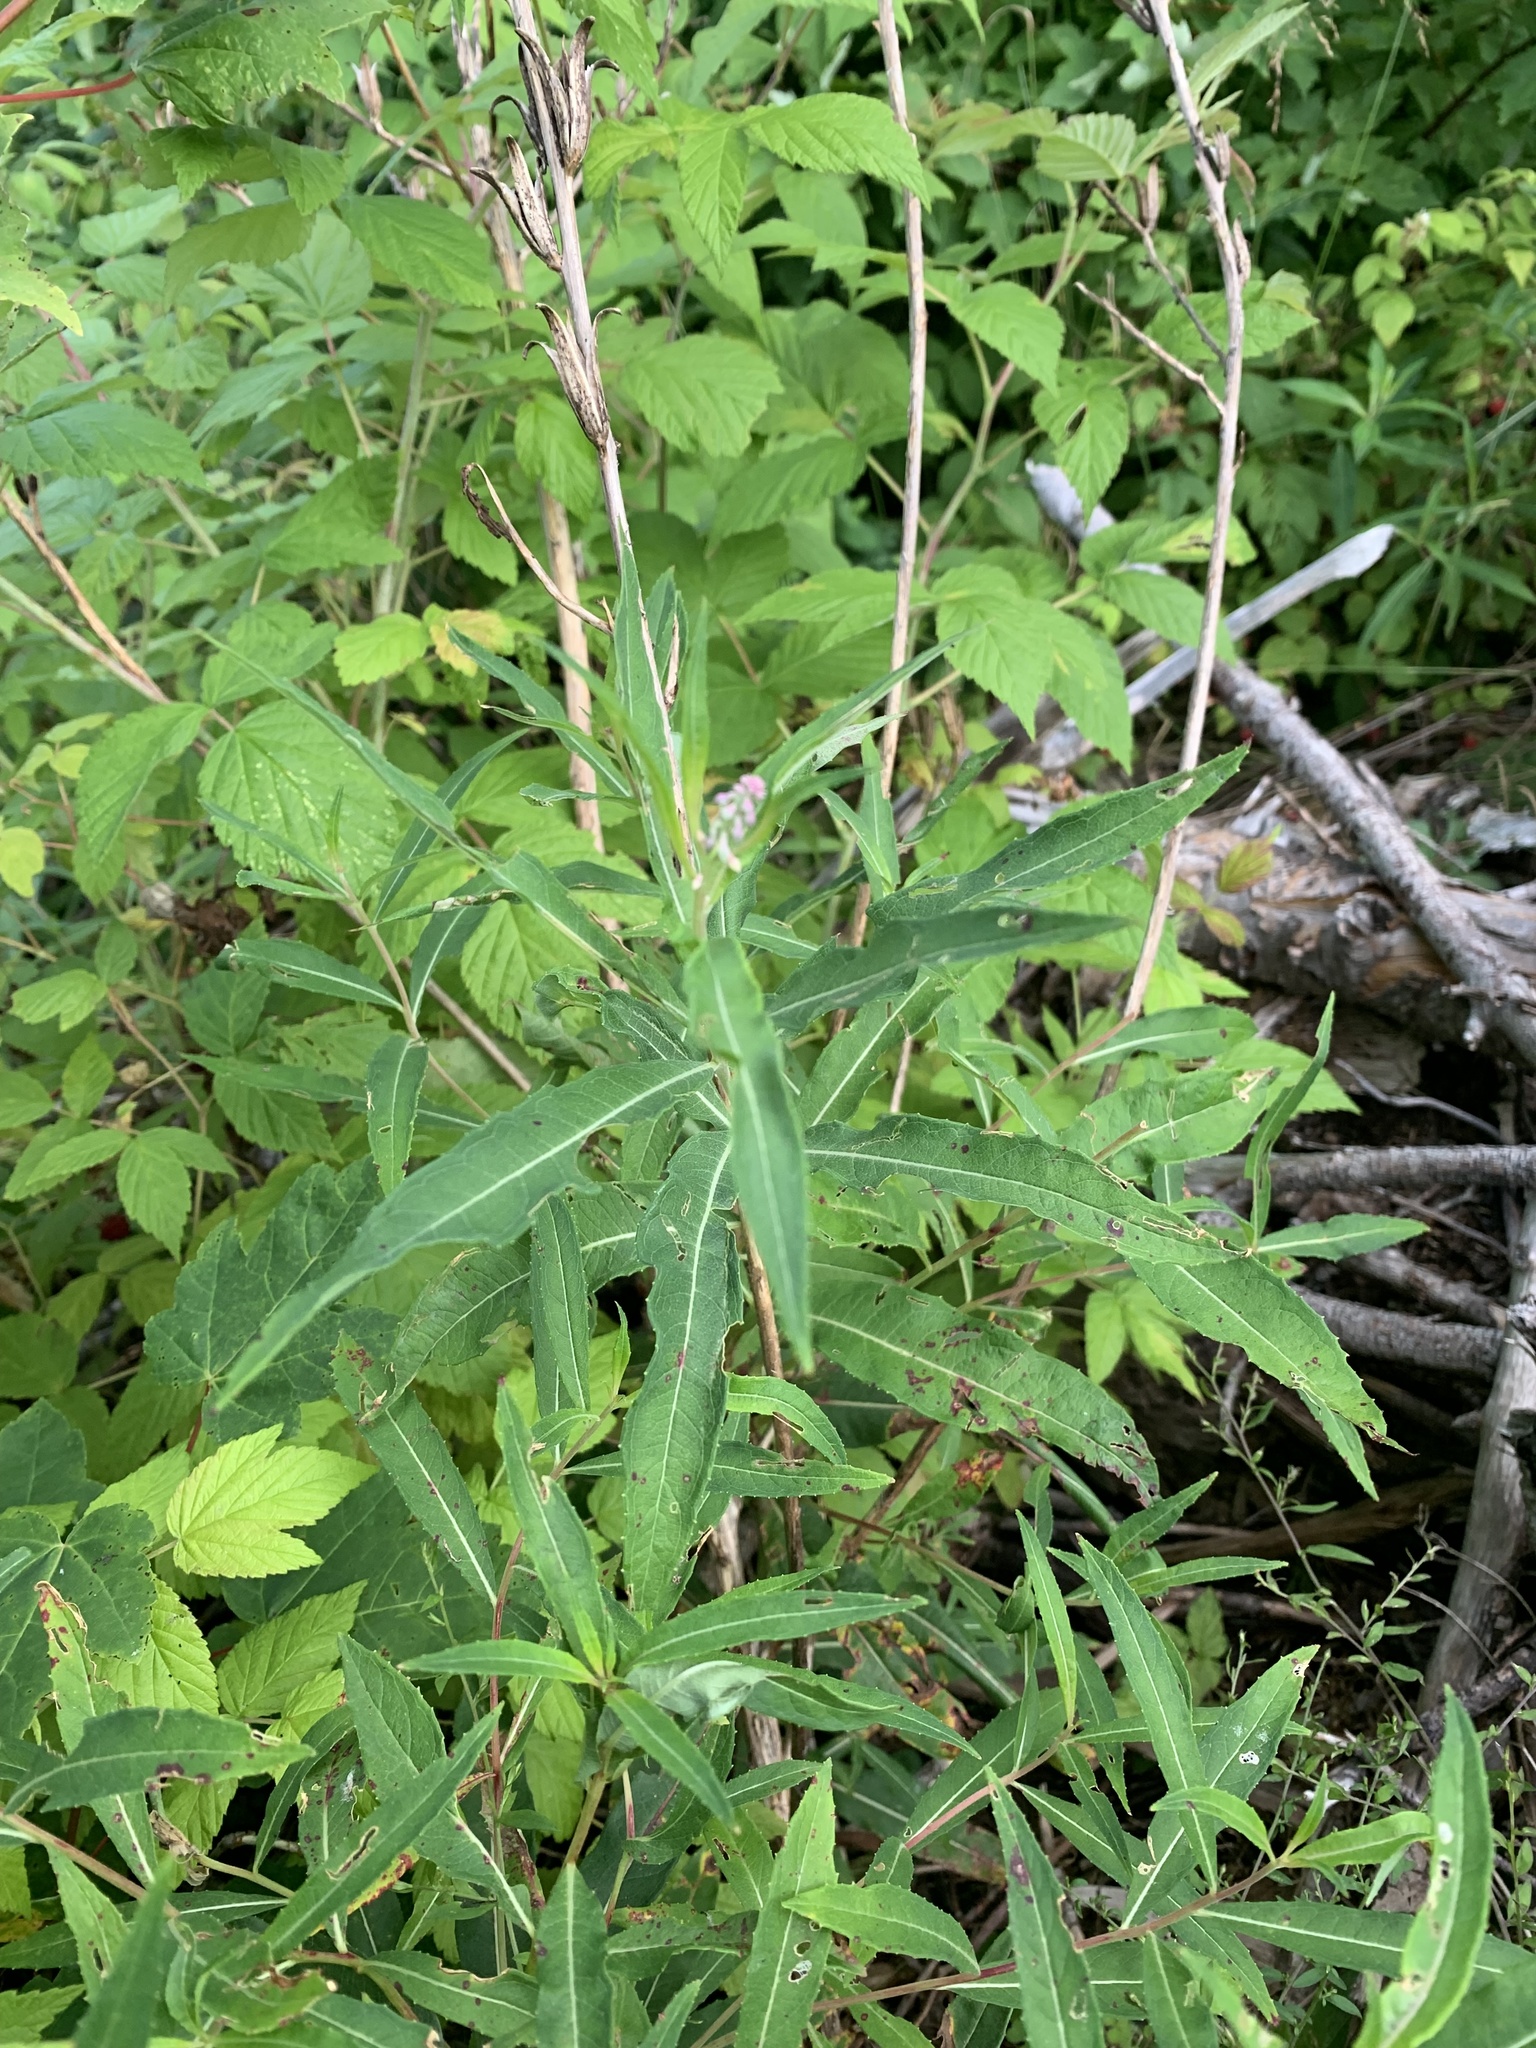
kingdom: Plantae
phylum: Tracheophyta
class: Magnoliopsida
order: Myrtales
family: Onagraceae
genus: Chamaenerion
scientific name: Chamaenerion angustifolium
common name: Fireweed
